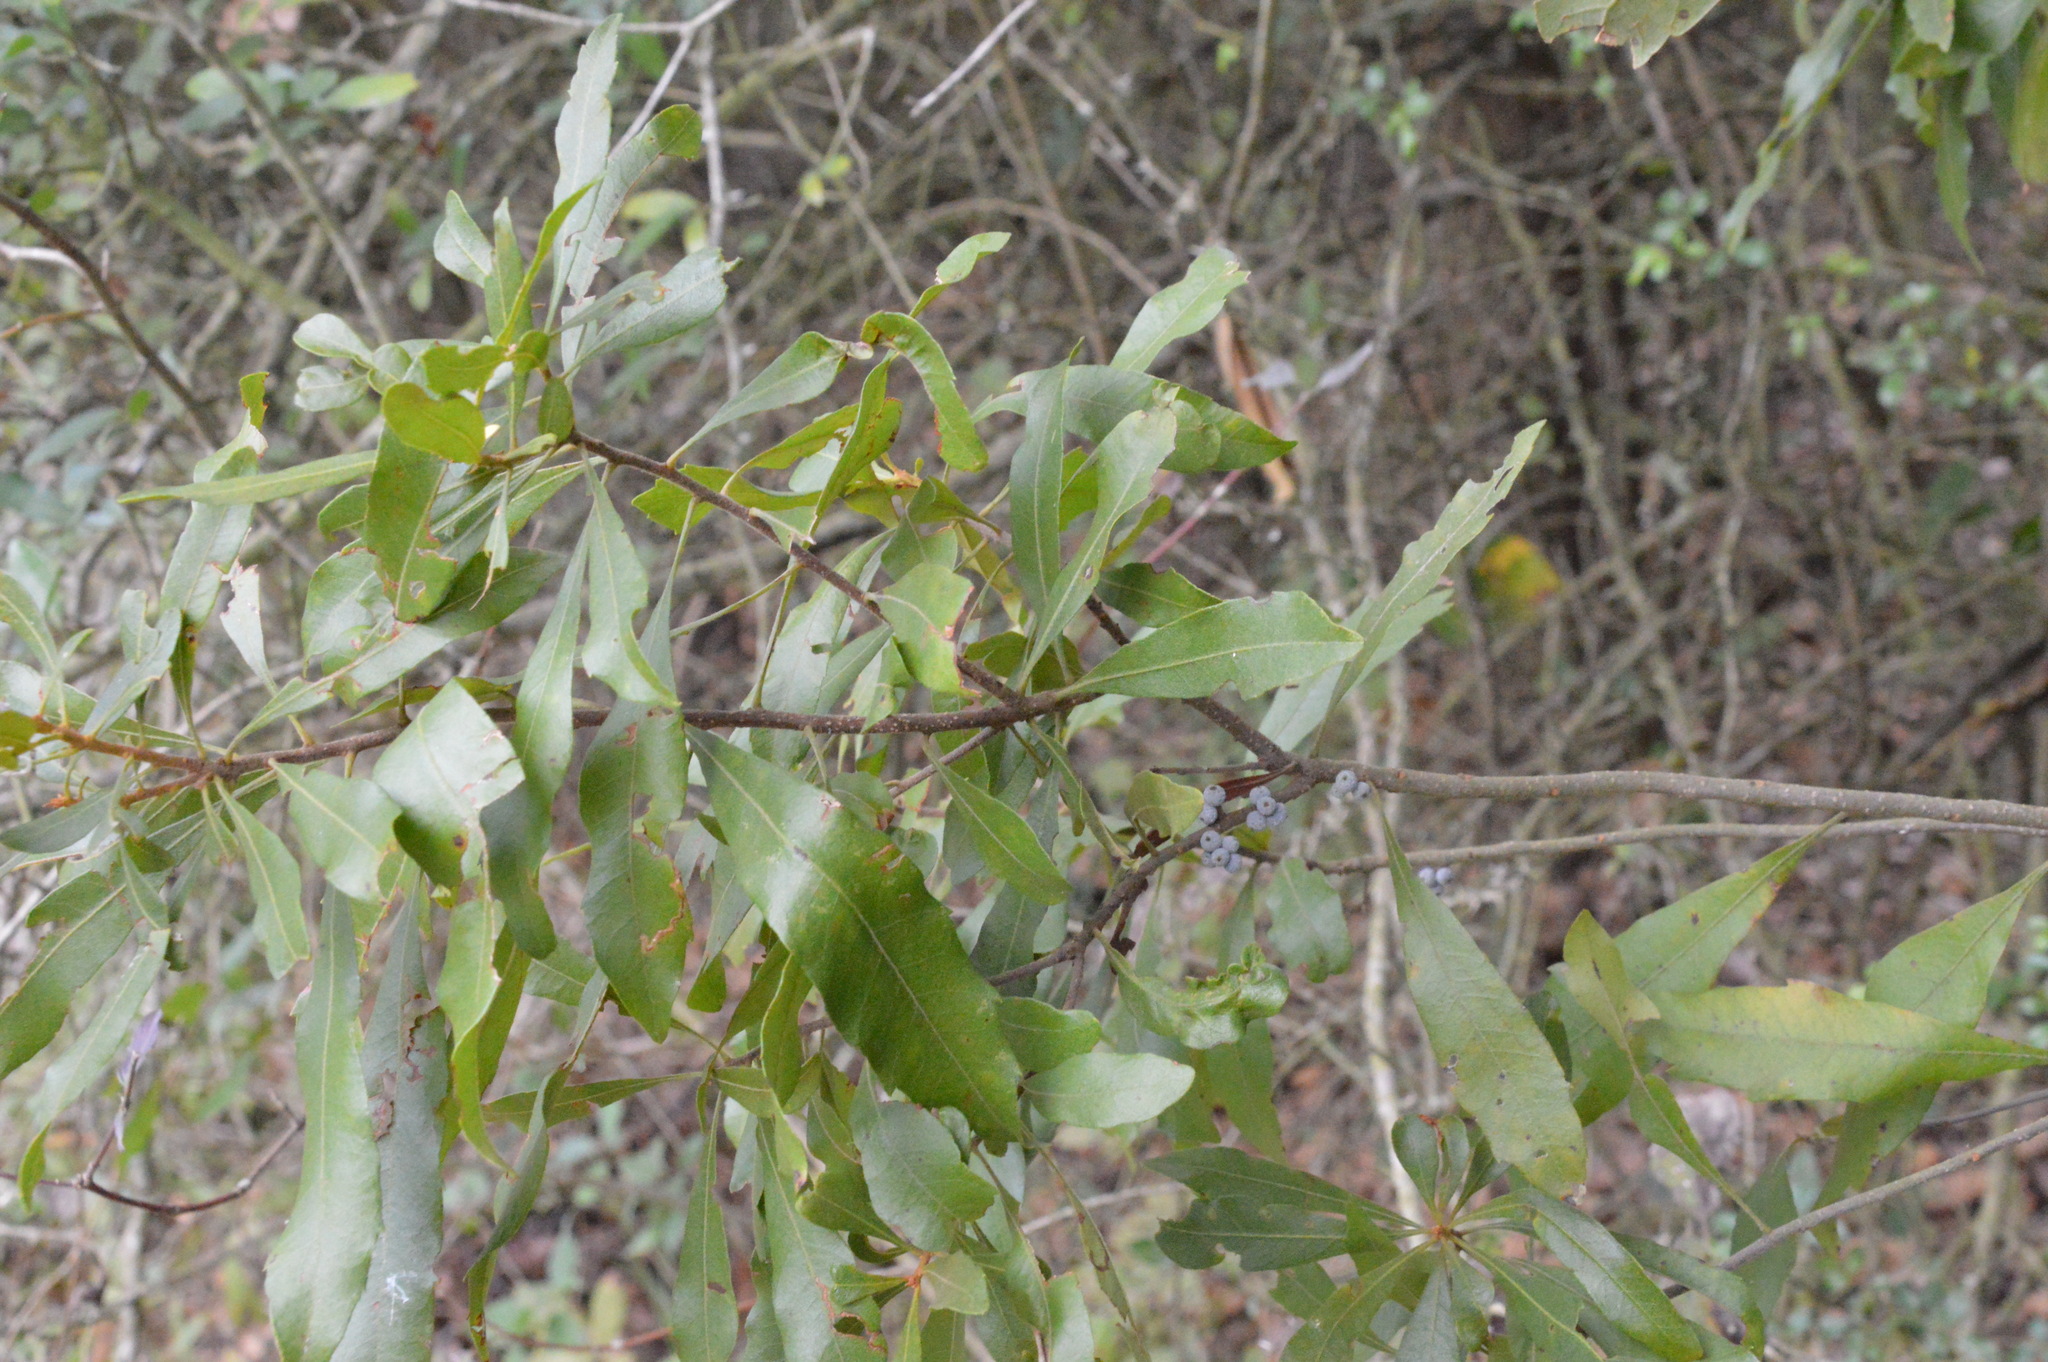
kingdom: Plantae
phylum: Tracheophyta
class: Magnoliopsida
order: Fagales
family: Myricaceae
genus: Morella
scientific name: Morella cerifera
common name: Wax myrtle
